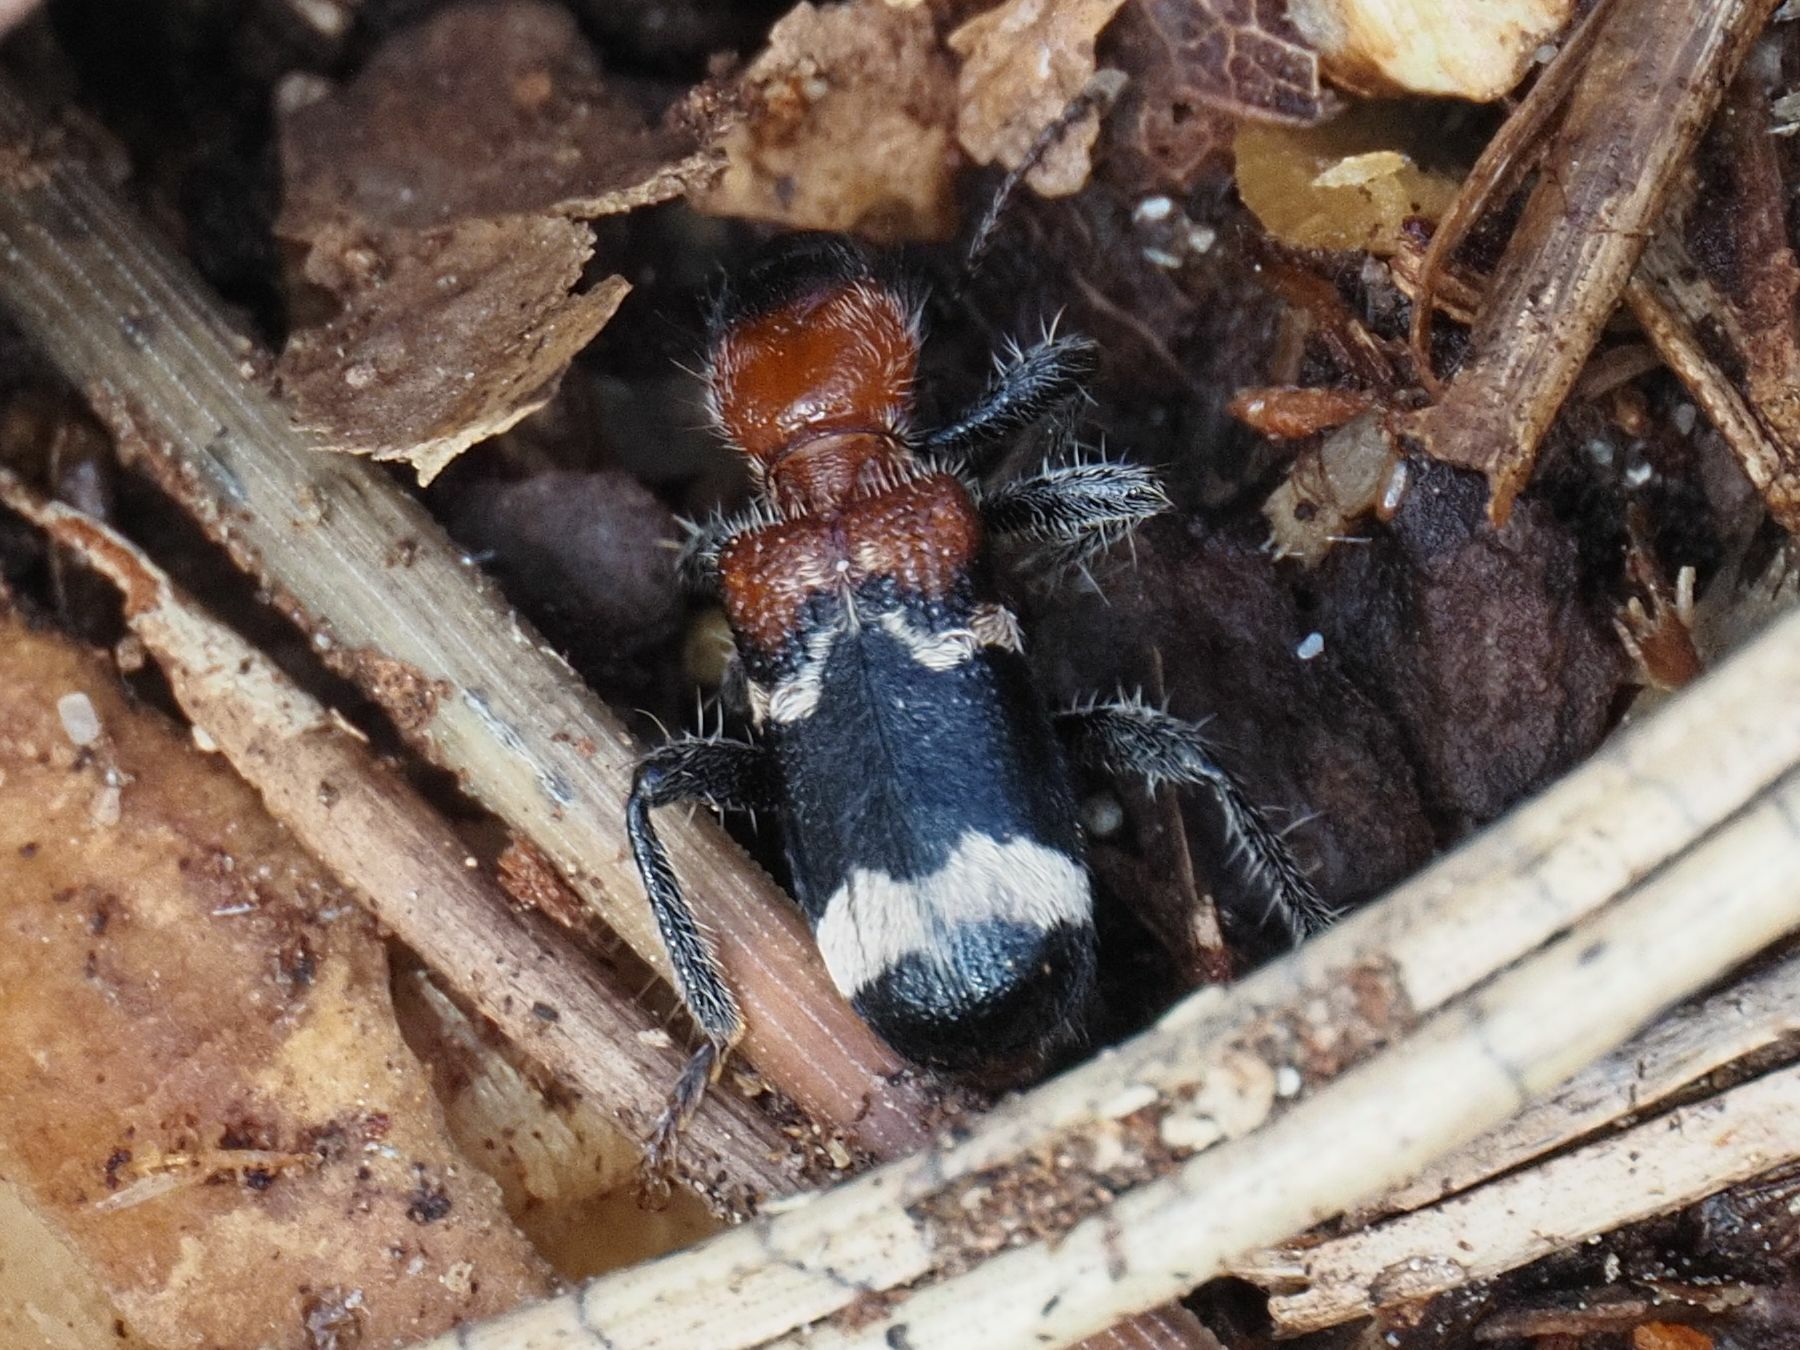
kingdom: Animalia
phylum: Arthropoda
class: Insecta
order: Coleoptera
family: Cleridae
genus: Thanasimus
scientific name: Thanasimus formicarius
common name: Ant beetle
